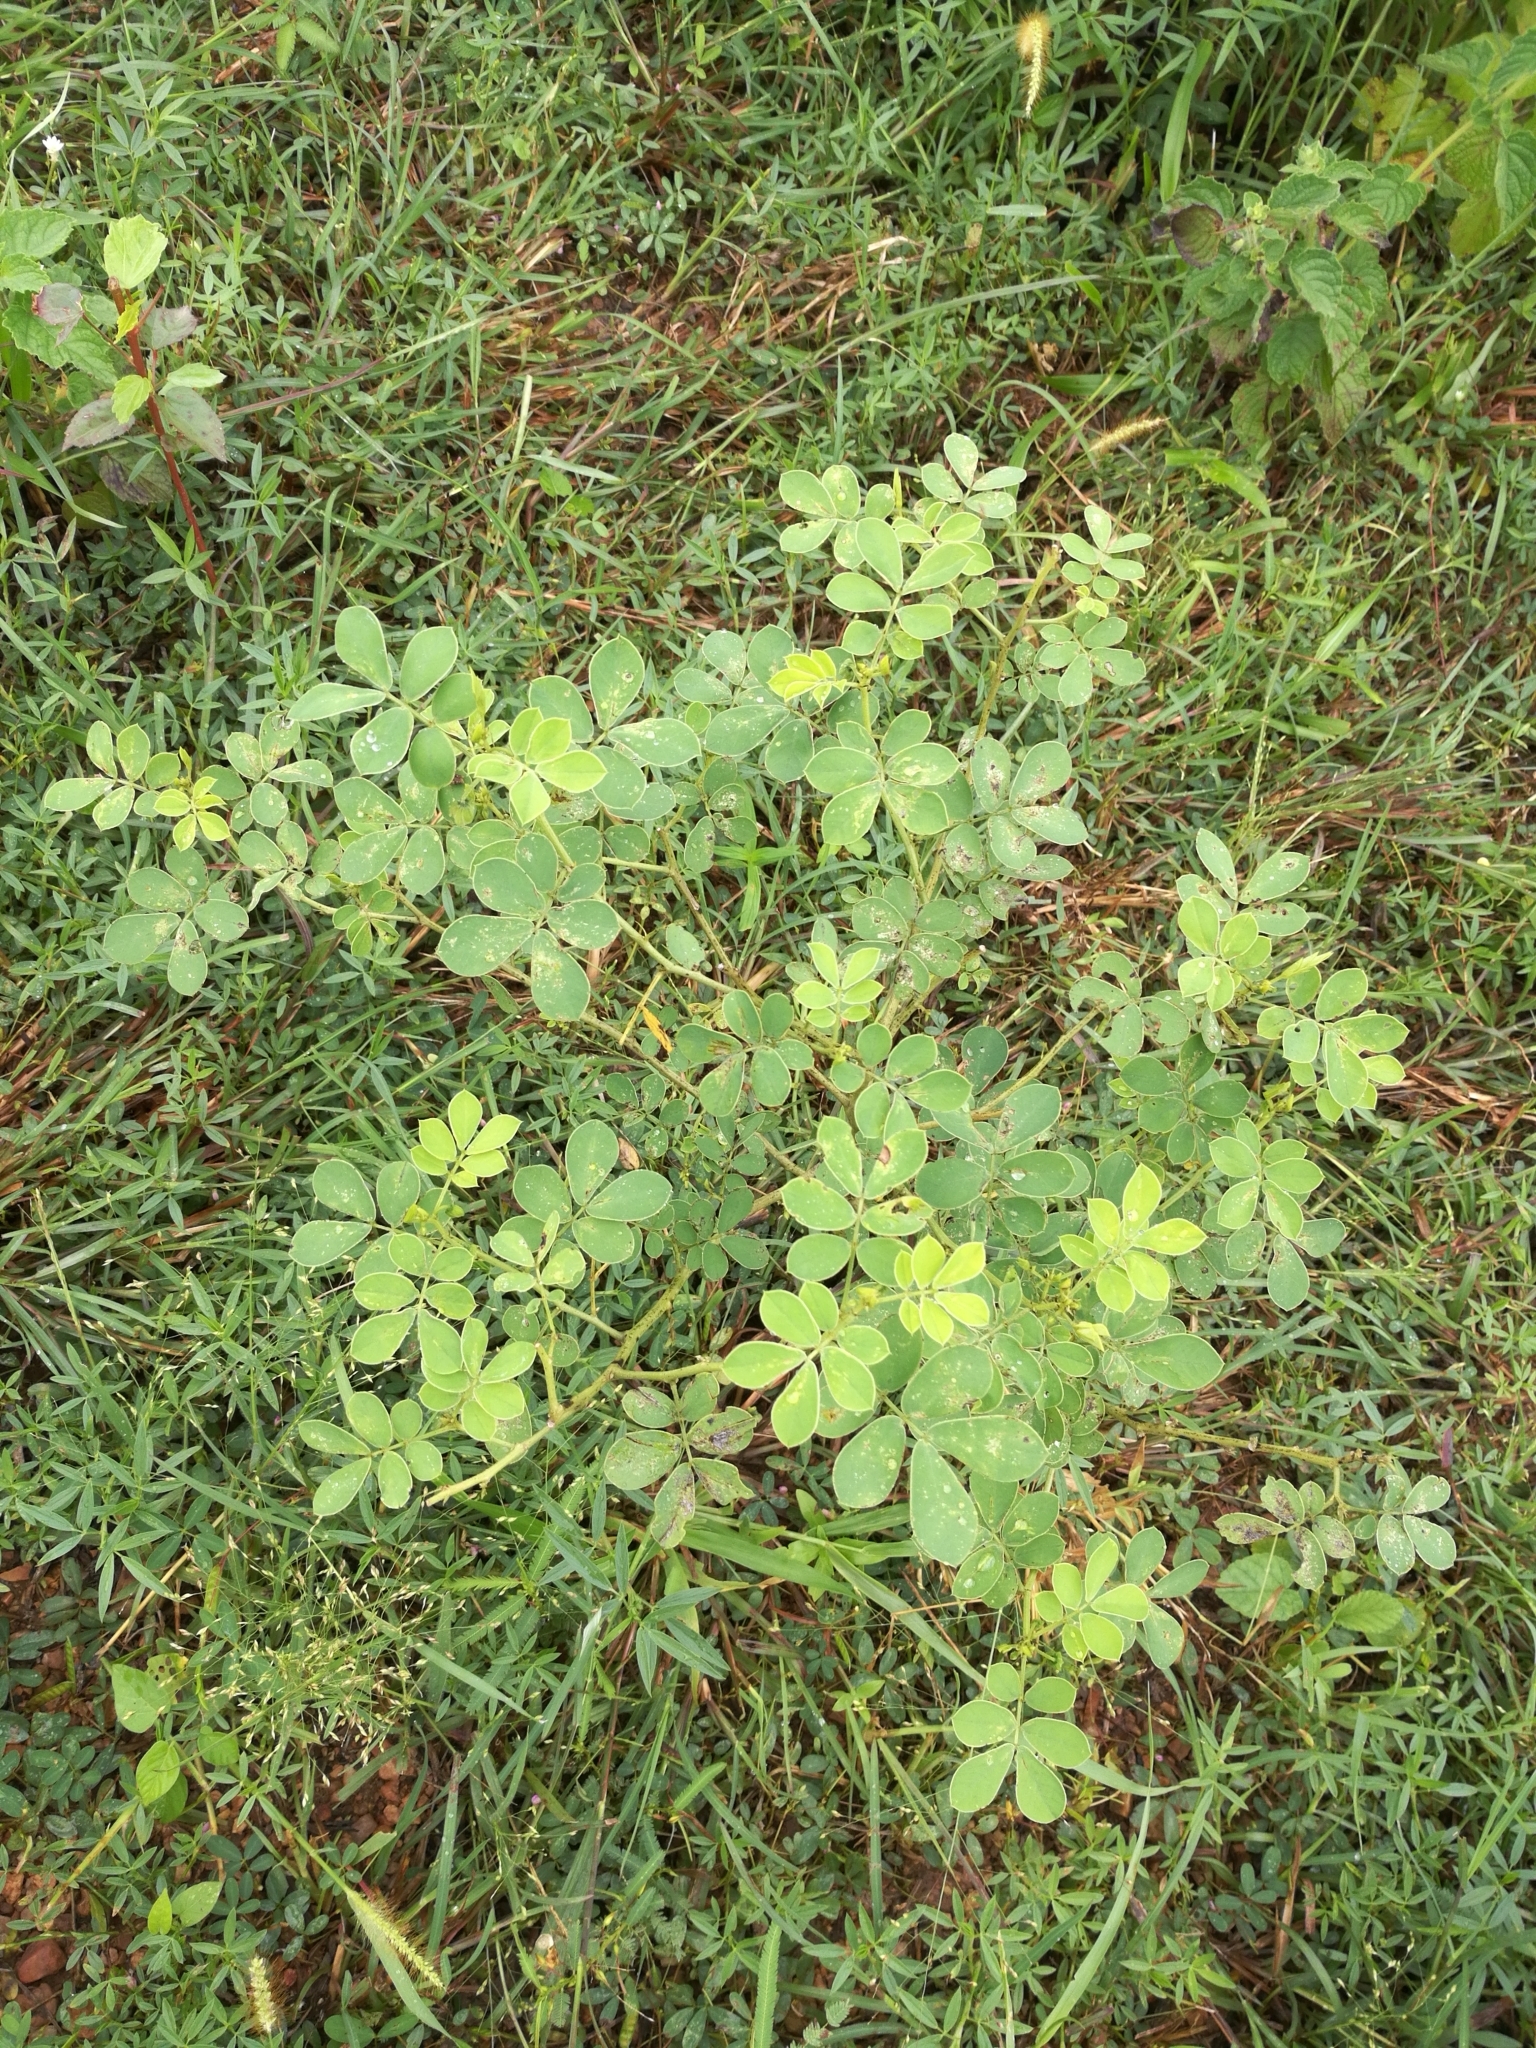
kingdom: Plantae
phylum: Tracheophyta
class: Magnoliopsida
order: Fabales
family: Fabaceae
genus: Senna
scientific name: Senna obtusifolia
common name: Java-bean
